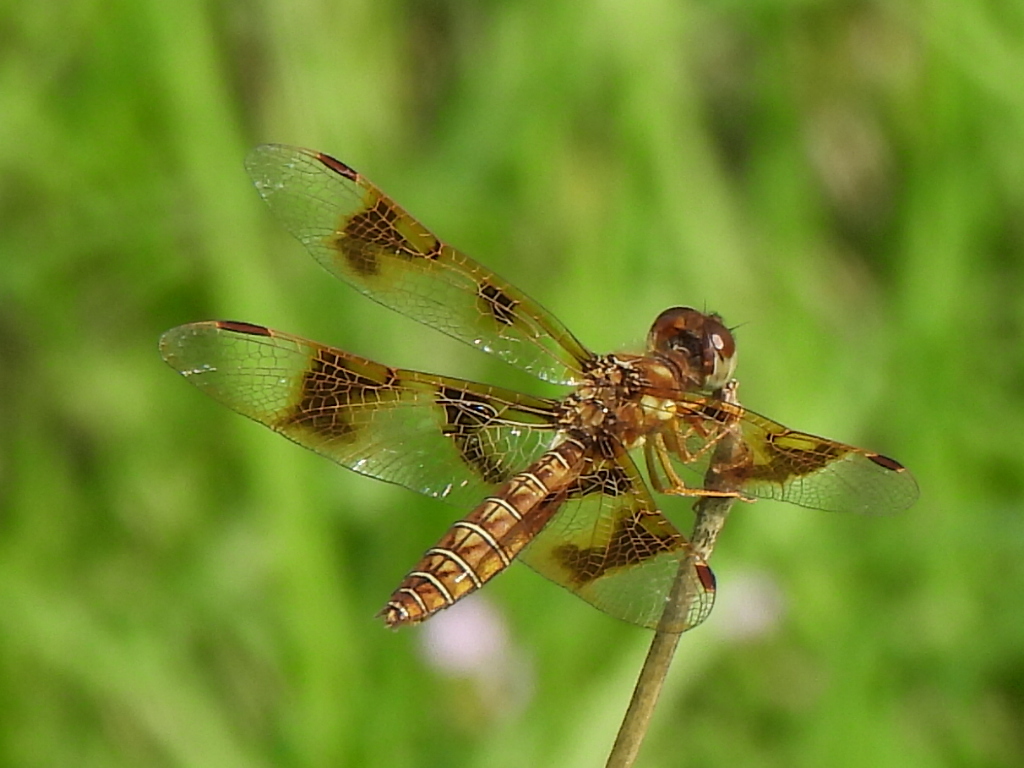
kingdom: Animalia
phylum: Arthropoda
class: Insecta
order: Odonata
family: Libellulidae
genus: Perithemis
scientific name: Perithemis tenera
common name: Eastern amberwing
